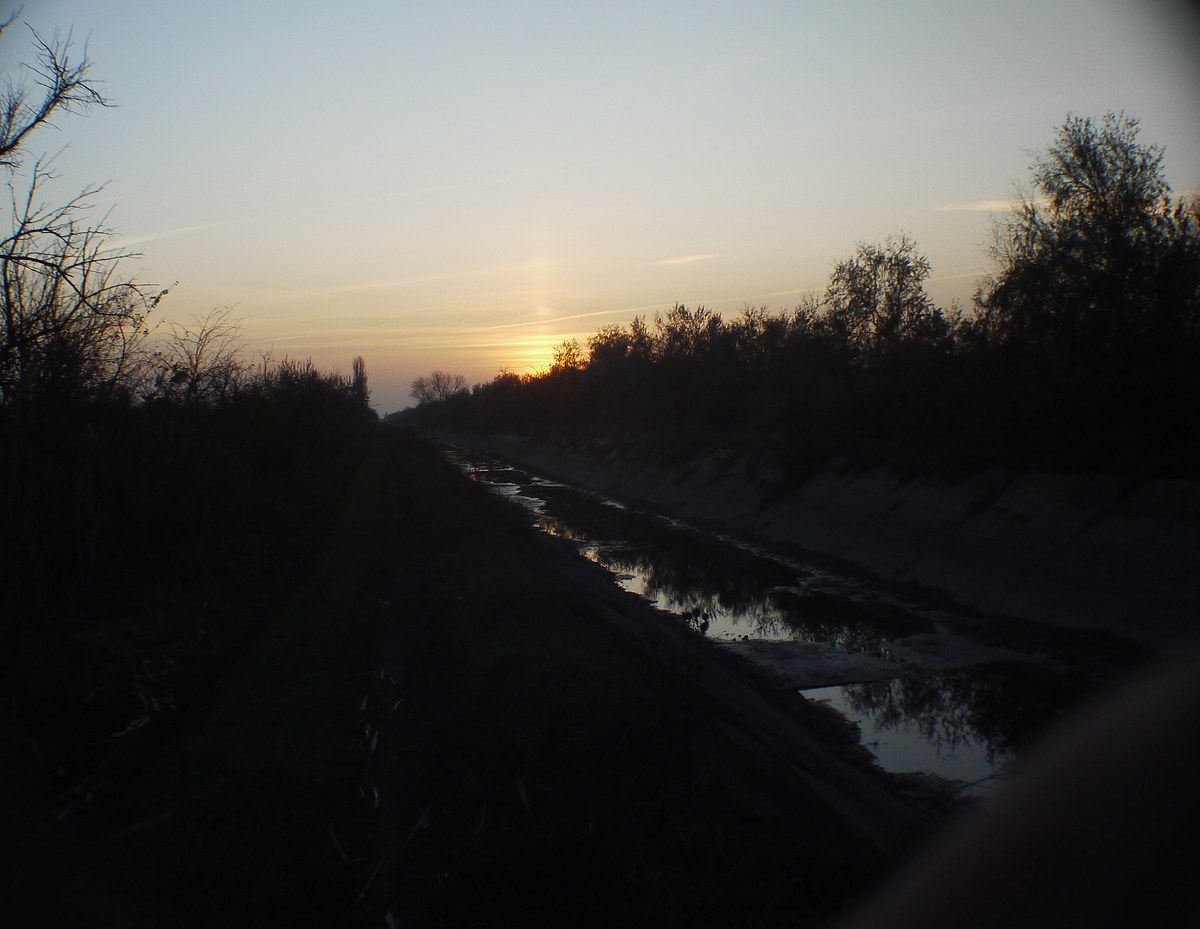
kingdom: Animalia
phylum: Mollusca
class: Bivalvia
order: Unionida
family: Unionidae
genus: Anodonta
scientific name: Anodonta cygnea
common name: Swan mussel
